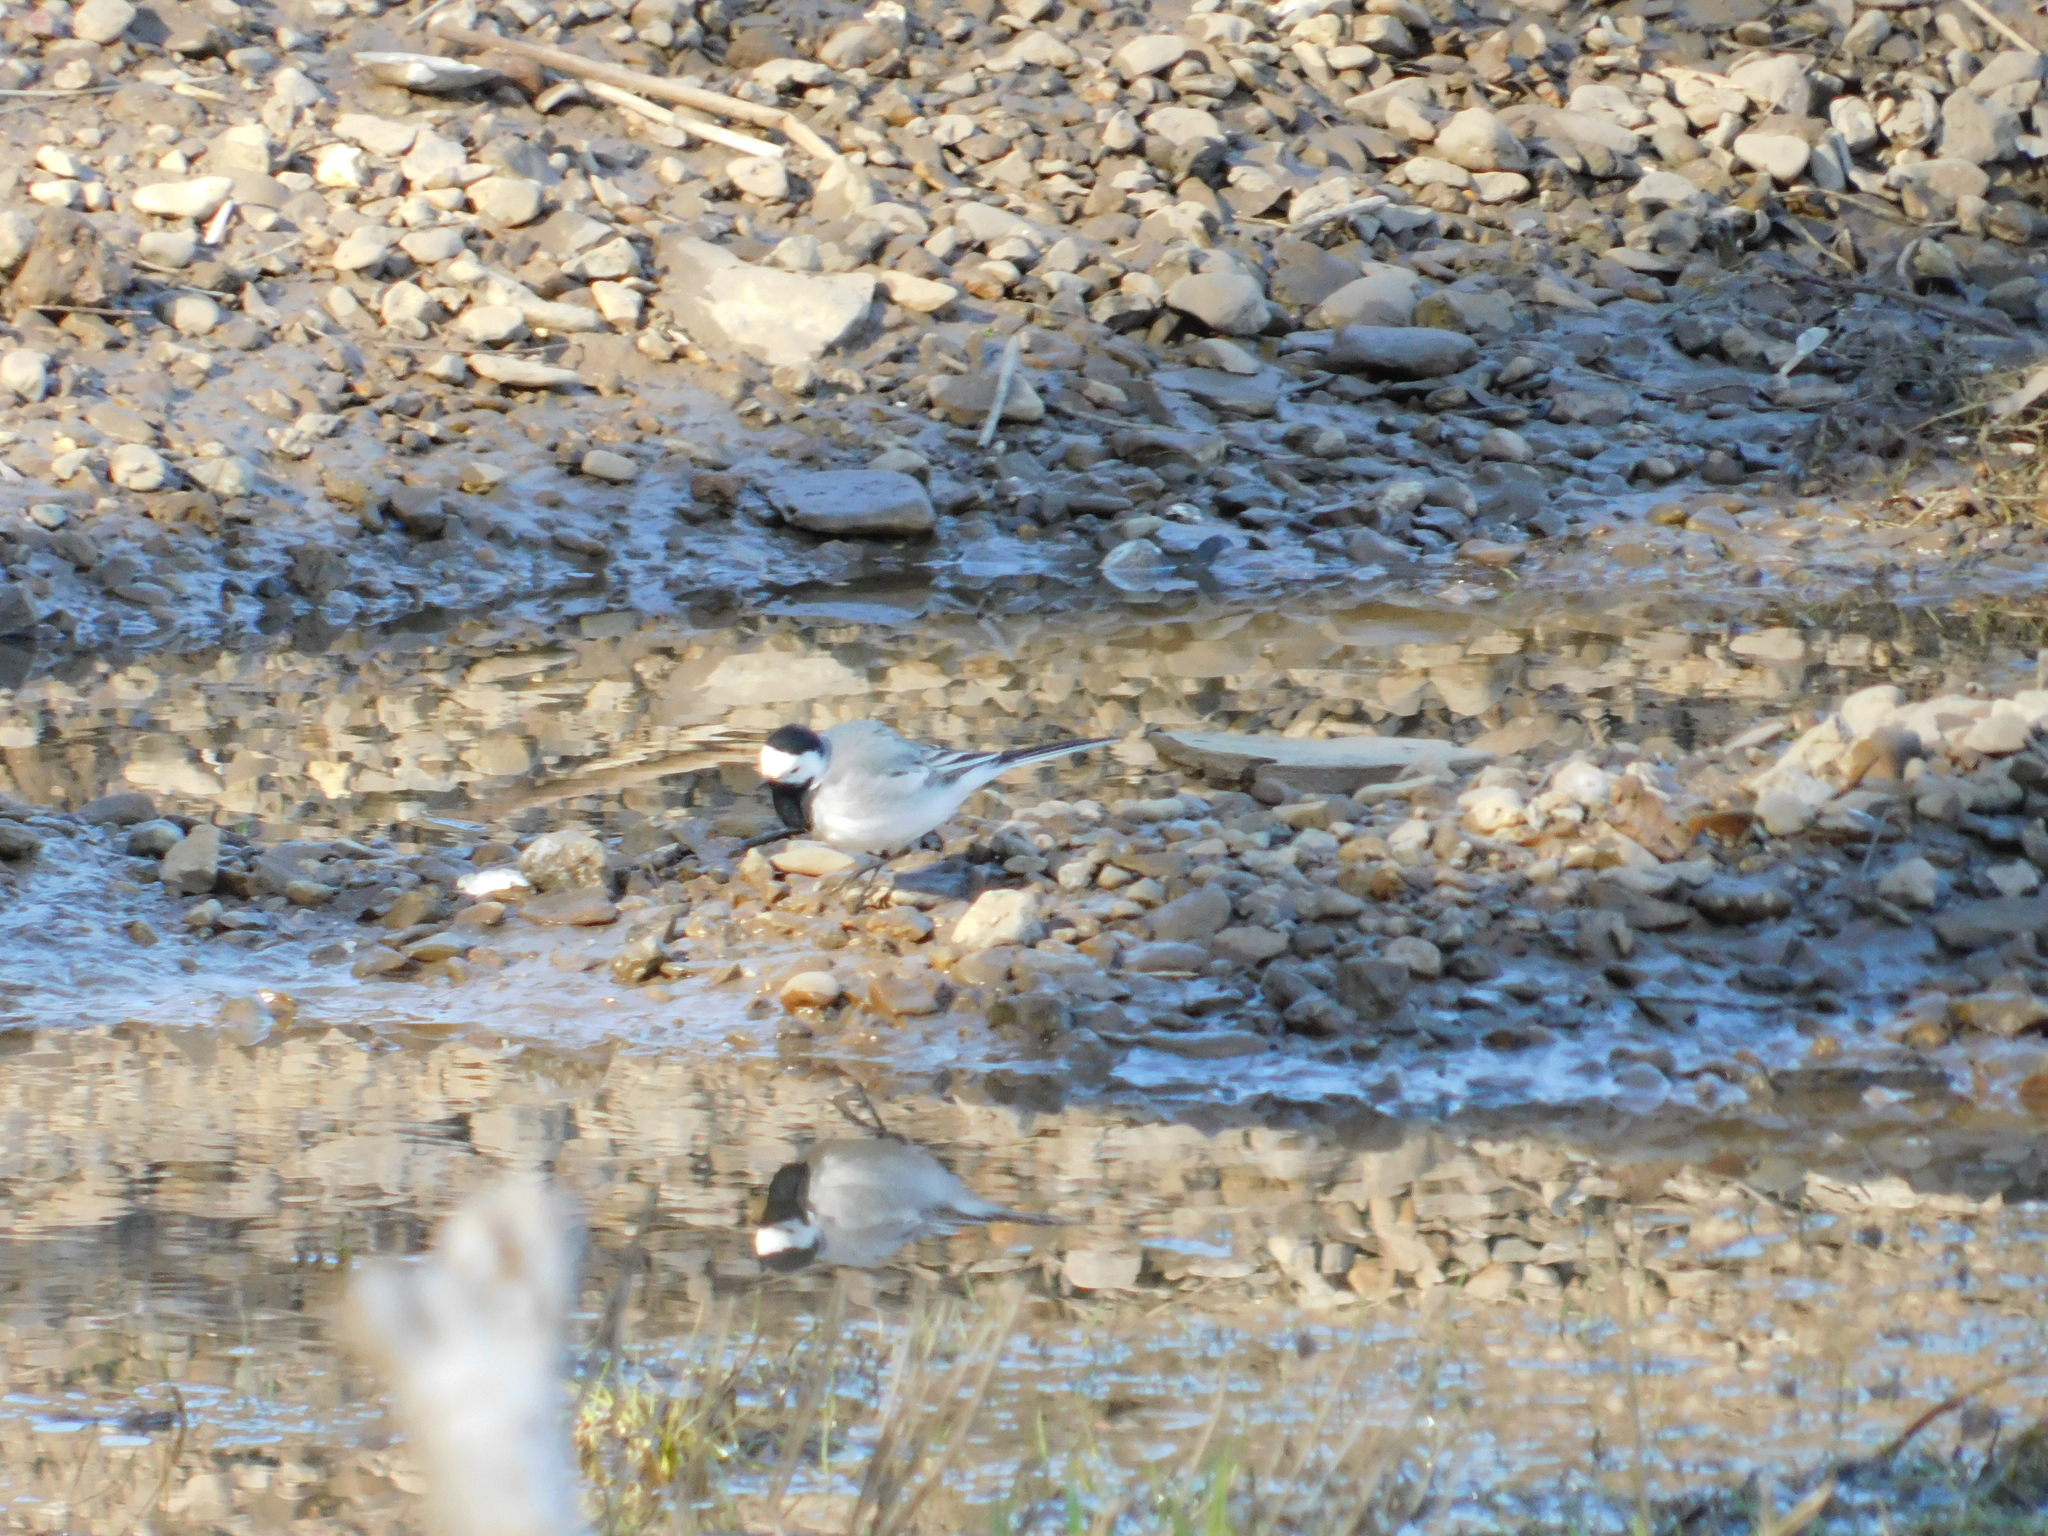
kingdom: Animalia
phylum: Chordata
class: Aves
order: Passeriformes
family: Motacillidae
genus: Motacilla
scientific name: Motacilla alba
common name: White wagtail
